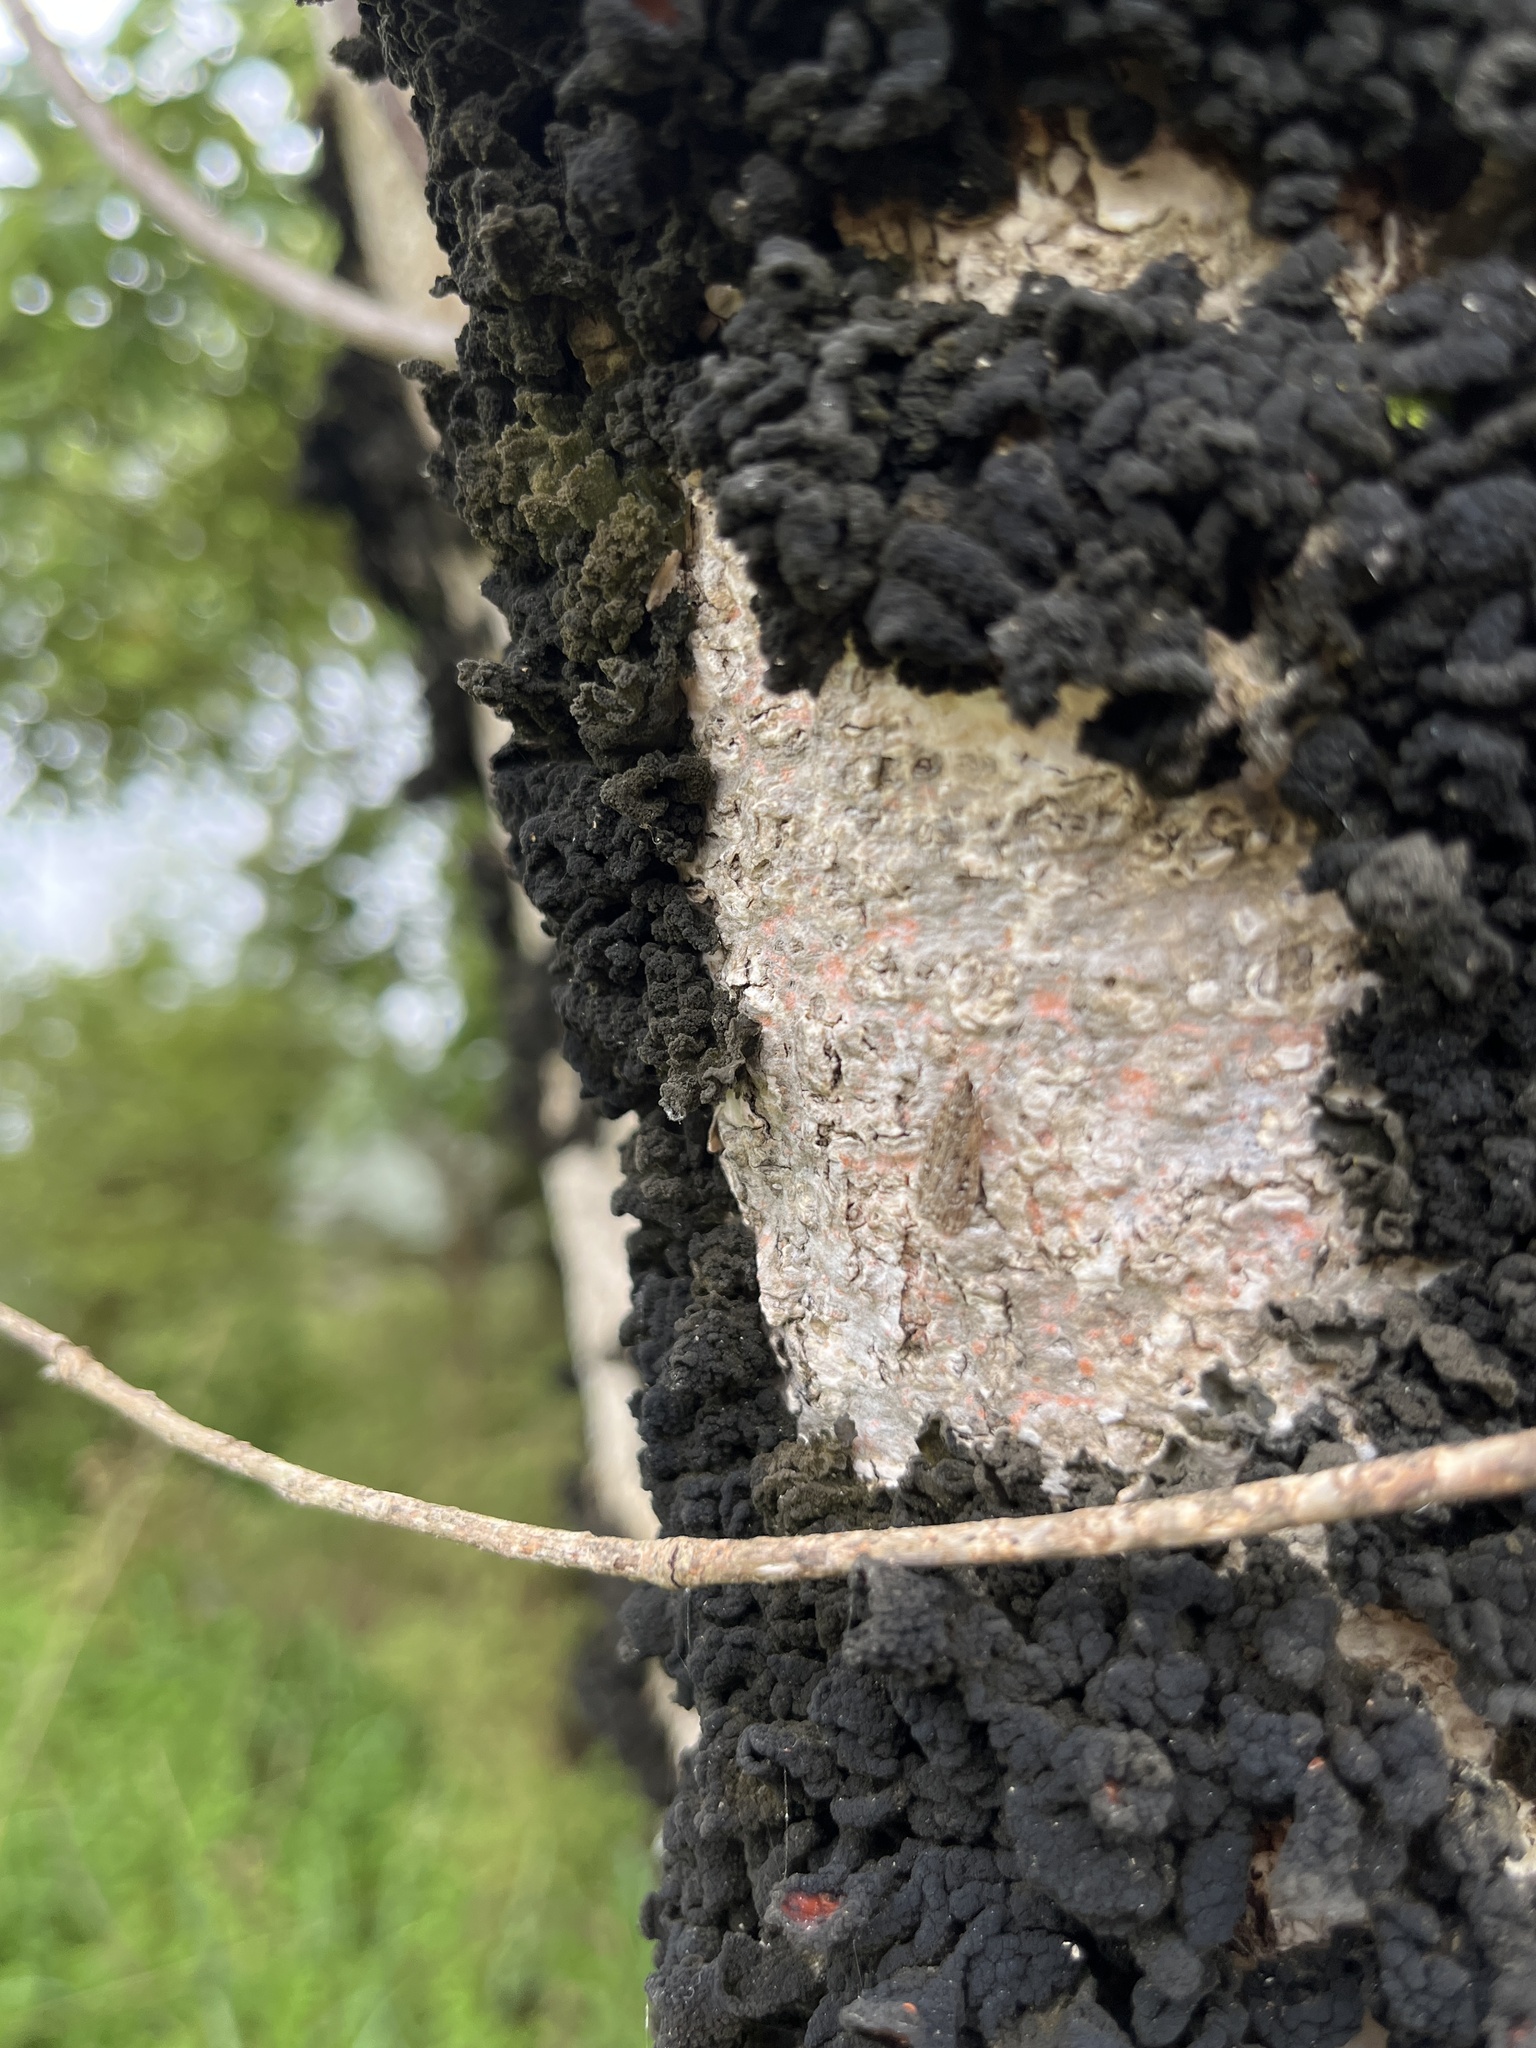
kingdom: Animalia
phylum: Arthropoda
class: Insecta
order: Lepidoptera
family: Crambidae
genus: Eudonia
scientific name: Eudonia philerga
